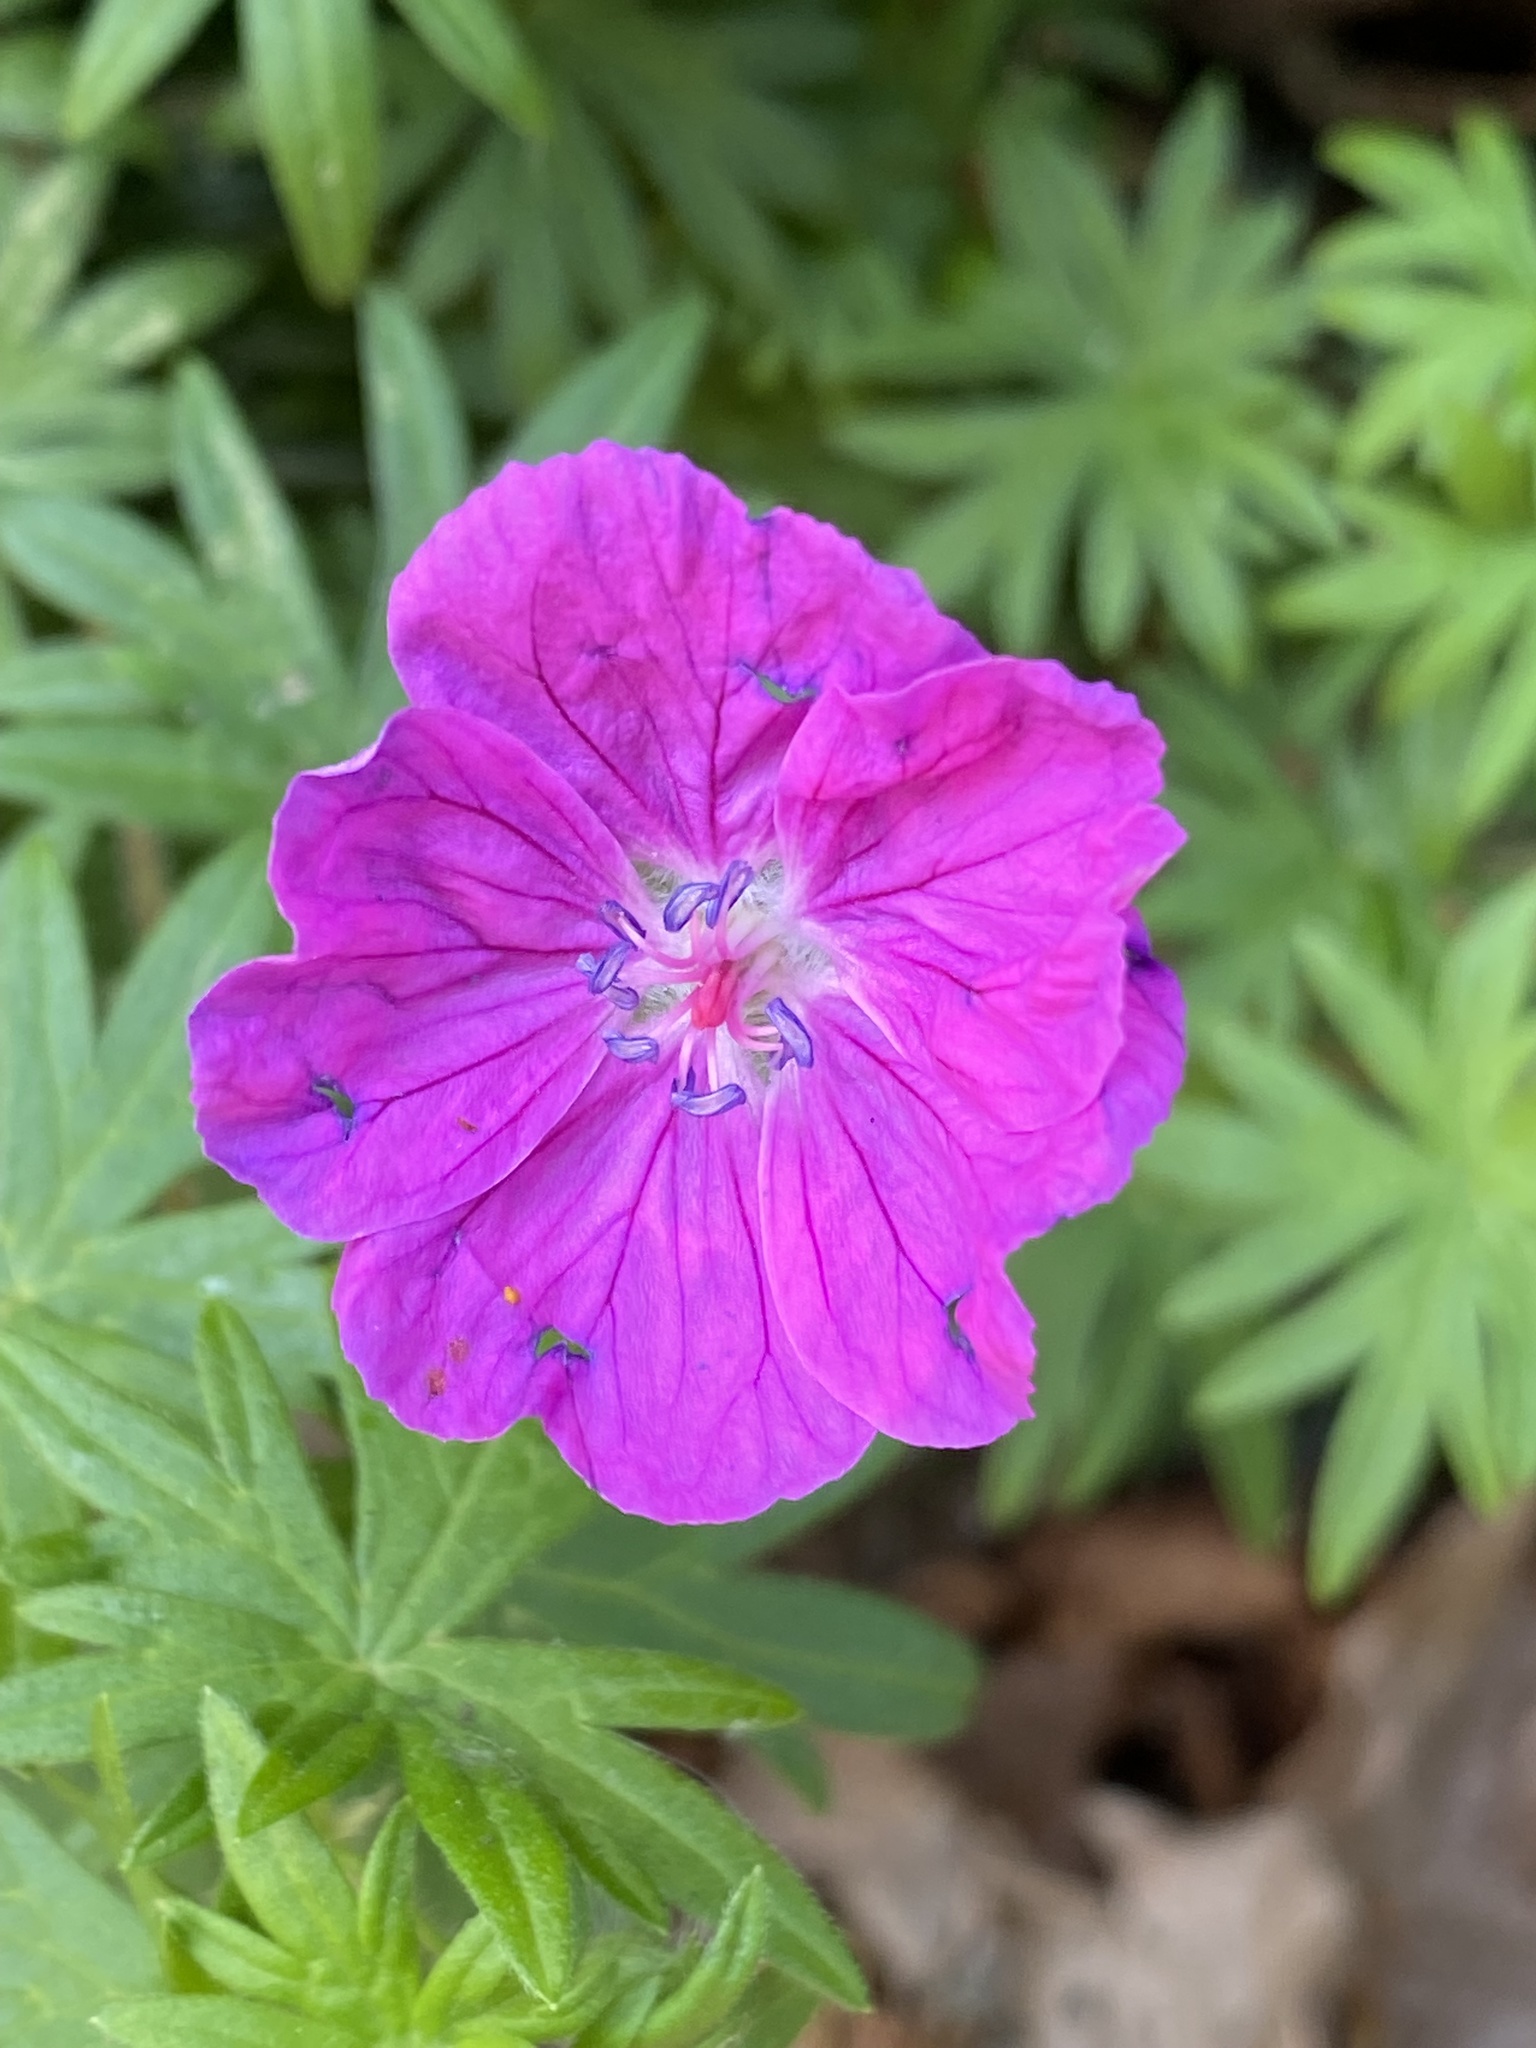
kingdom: Plantae
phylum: Tracheophyta
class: Magnoliopsida
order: Geraniales
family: Geraniaceae
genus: Geranium
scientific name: Geranium sanguineum
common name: Bloody crane's-bill
